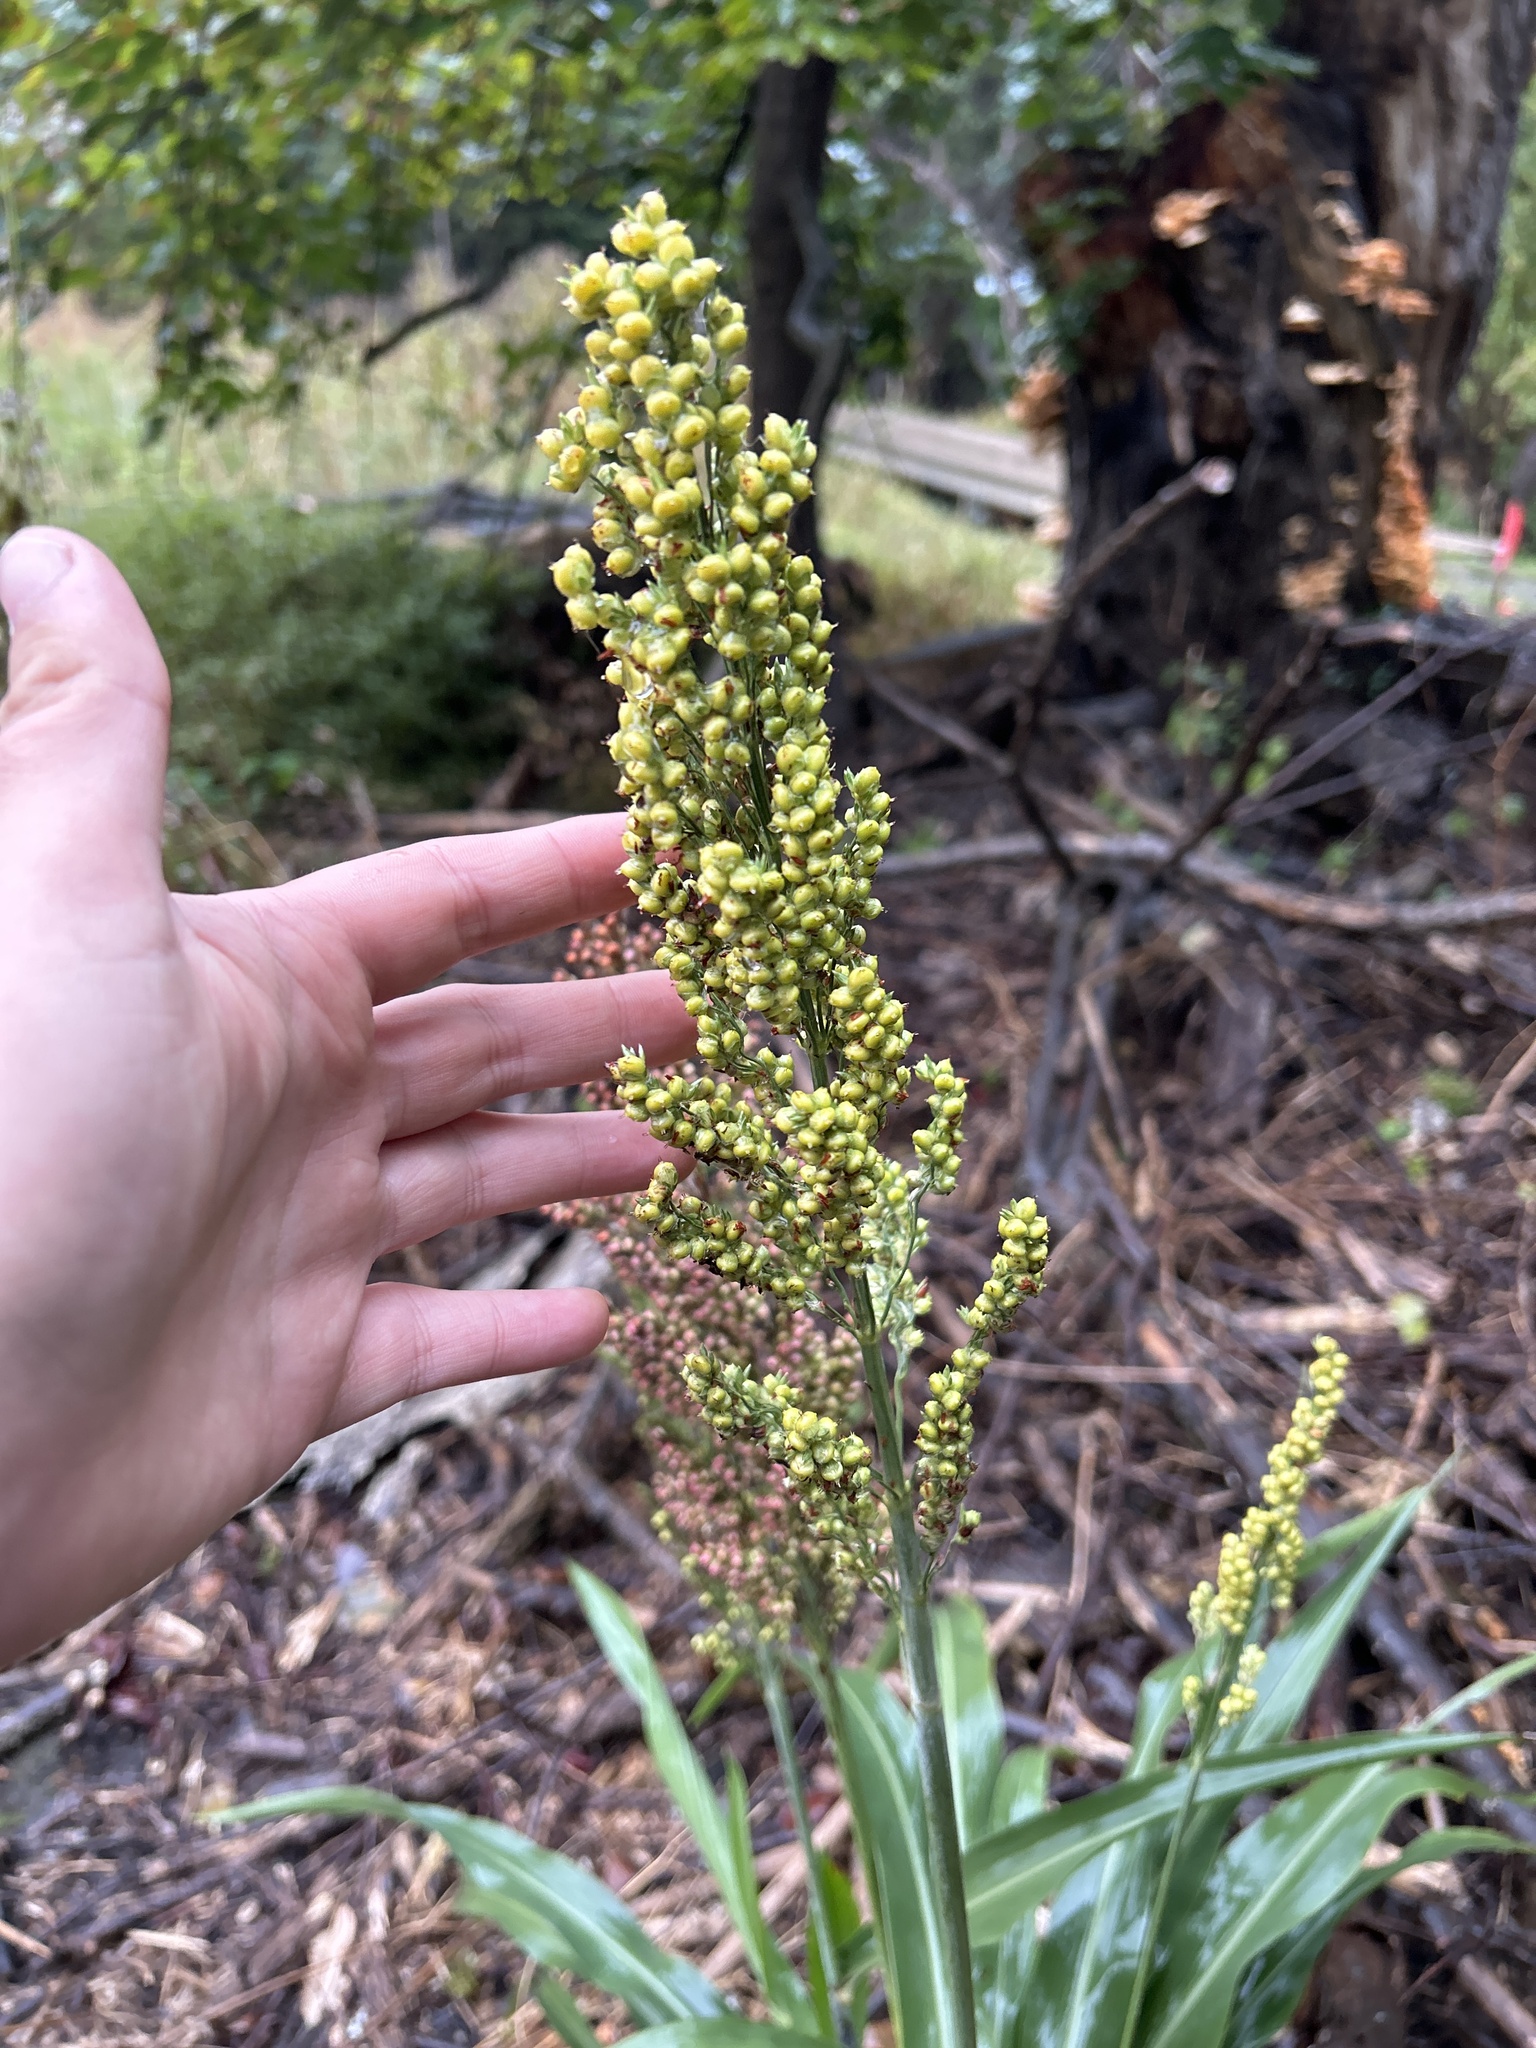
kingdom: Plantae
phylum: Tracheophyta
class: Liliopsida
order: Poales
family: Poaceae
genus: Sorghum
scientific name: Sorghum bicolor
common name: Sorghum
